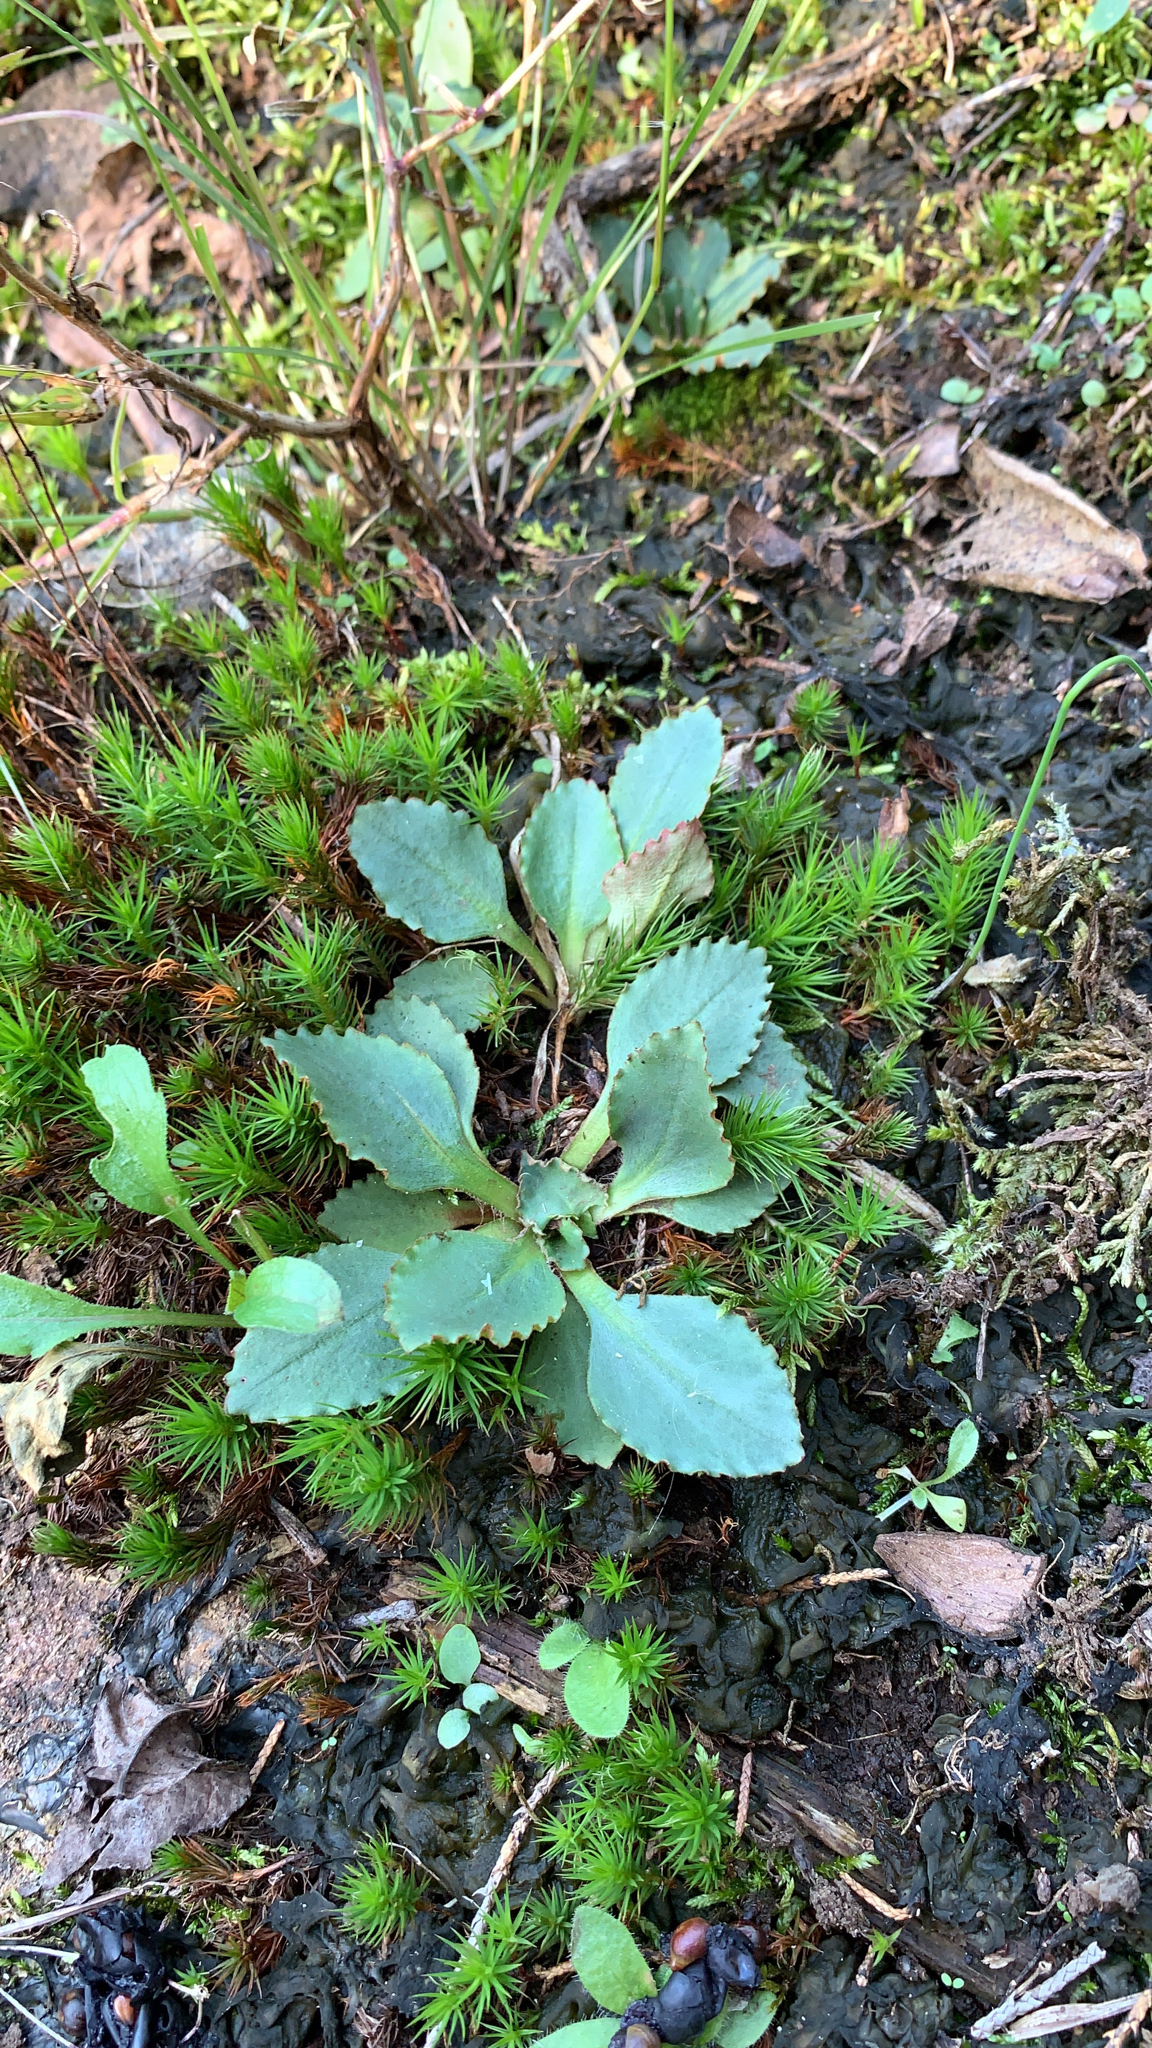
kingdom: Plantae
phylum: Tracheophyta
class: Magnoliopsida
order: Saxifragales
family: Saxifragaceae
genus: Micranthes
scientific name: Micranthes virginiensis
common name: Early saxifrage
